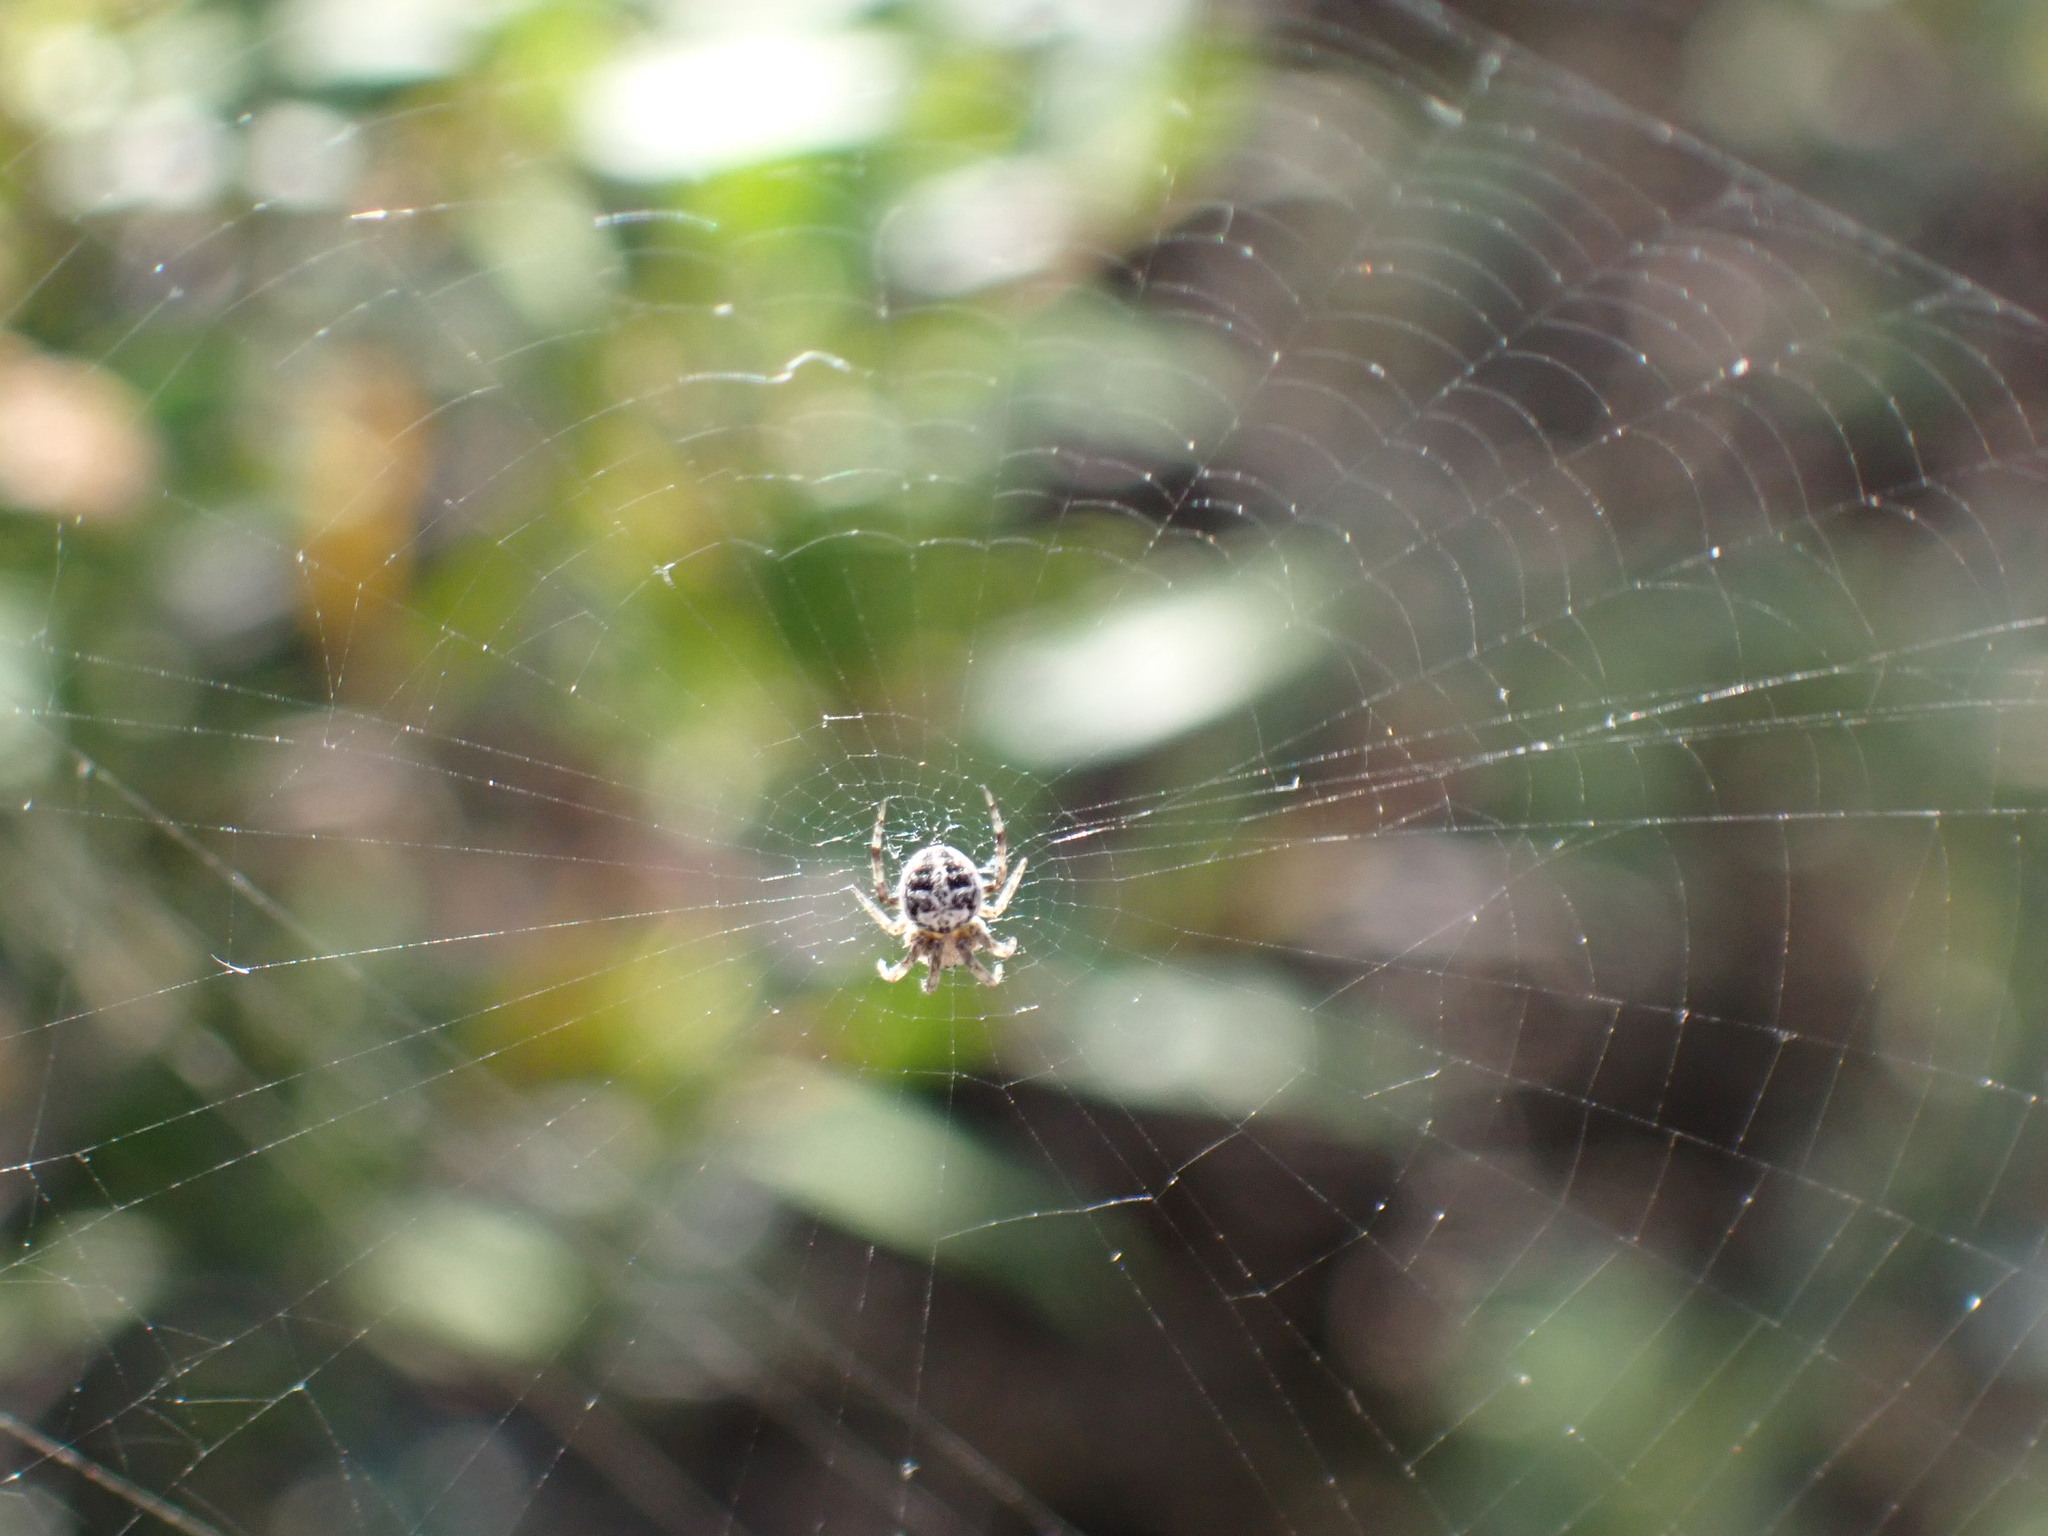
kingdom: Animalia
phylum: Arthropoda
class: Arachnida
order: Araneae
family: Araneidae
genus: Agalenatea
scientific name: Agalenatea redii
